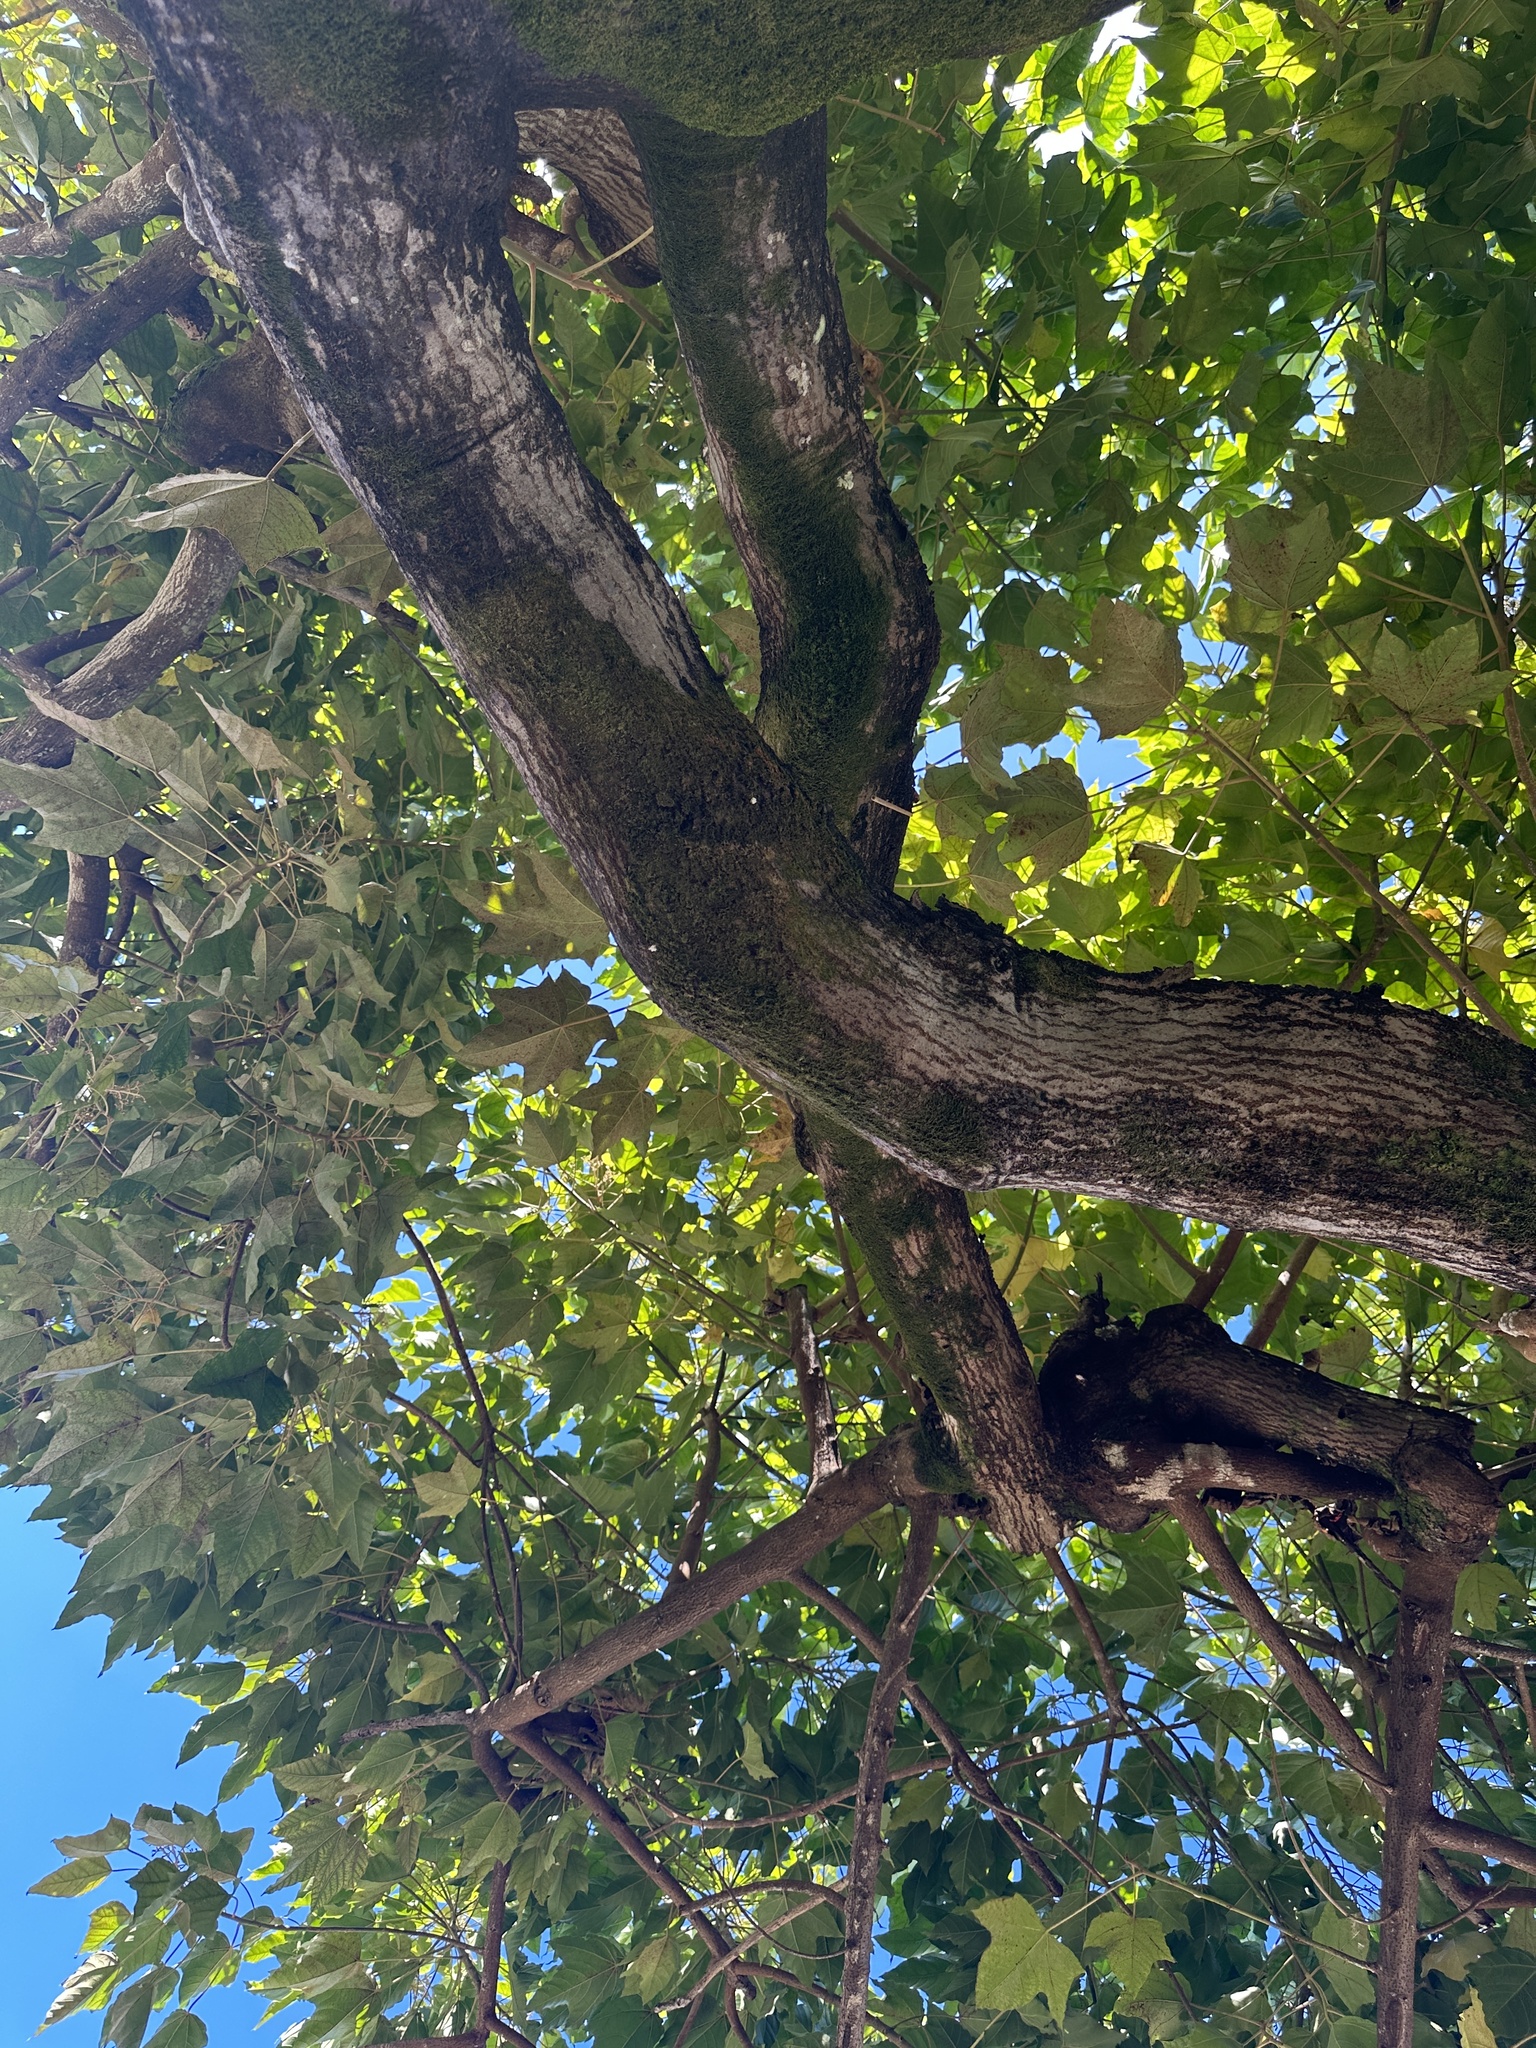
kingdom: Plantae
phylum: Tracheophyta
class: Magnoliopsida
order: Malpighiales
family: Euphorbiaceae
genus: Aleurites
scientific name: Aleurites moluccanus
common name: Candlenut tree
